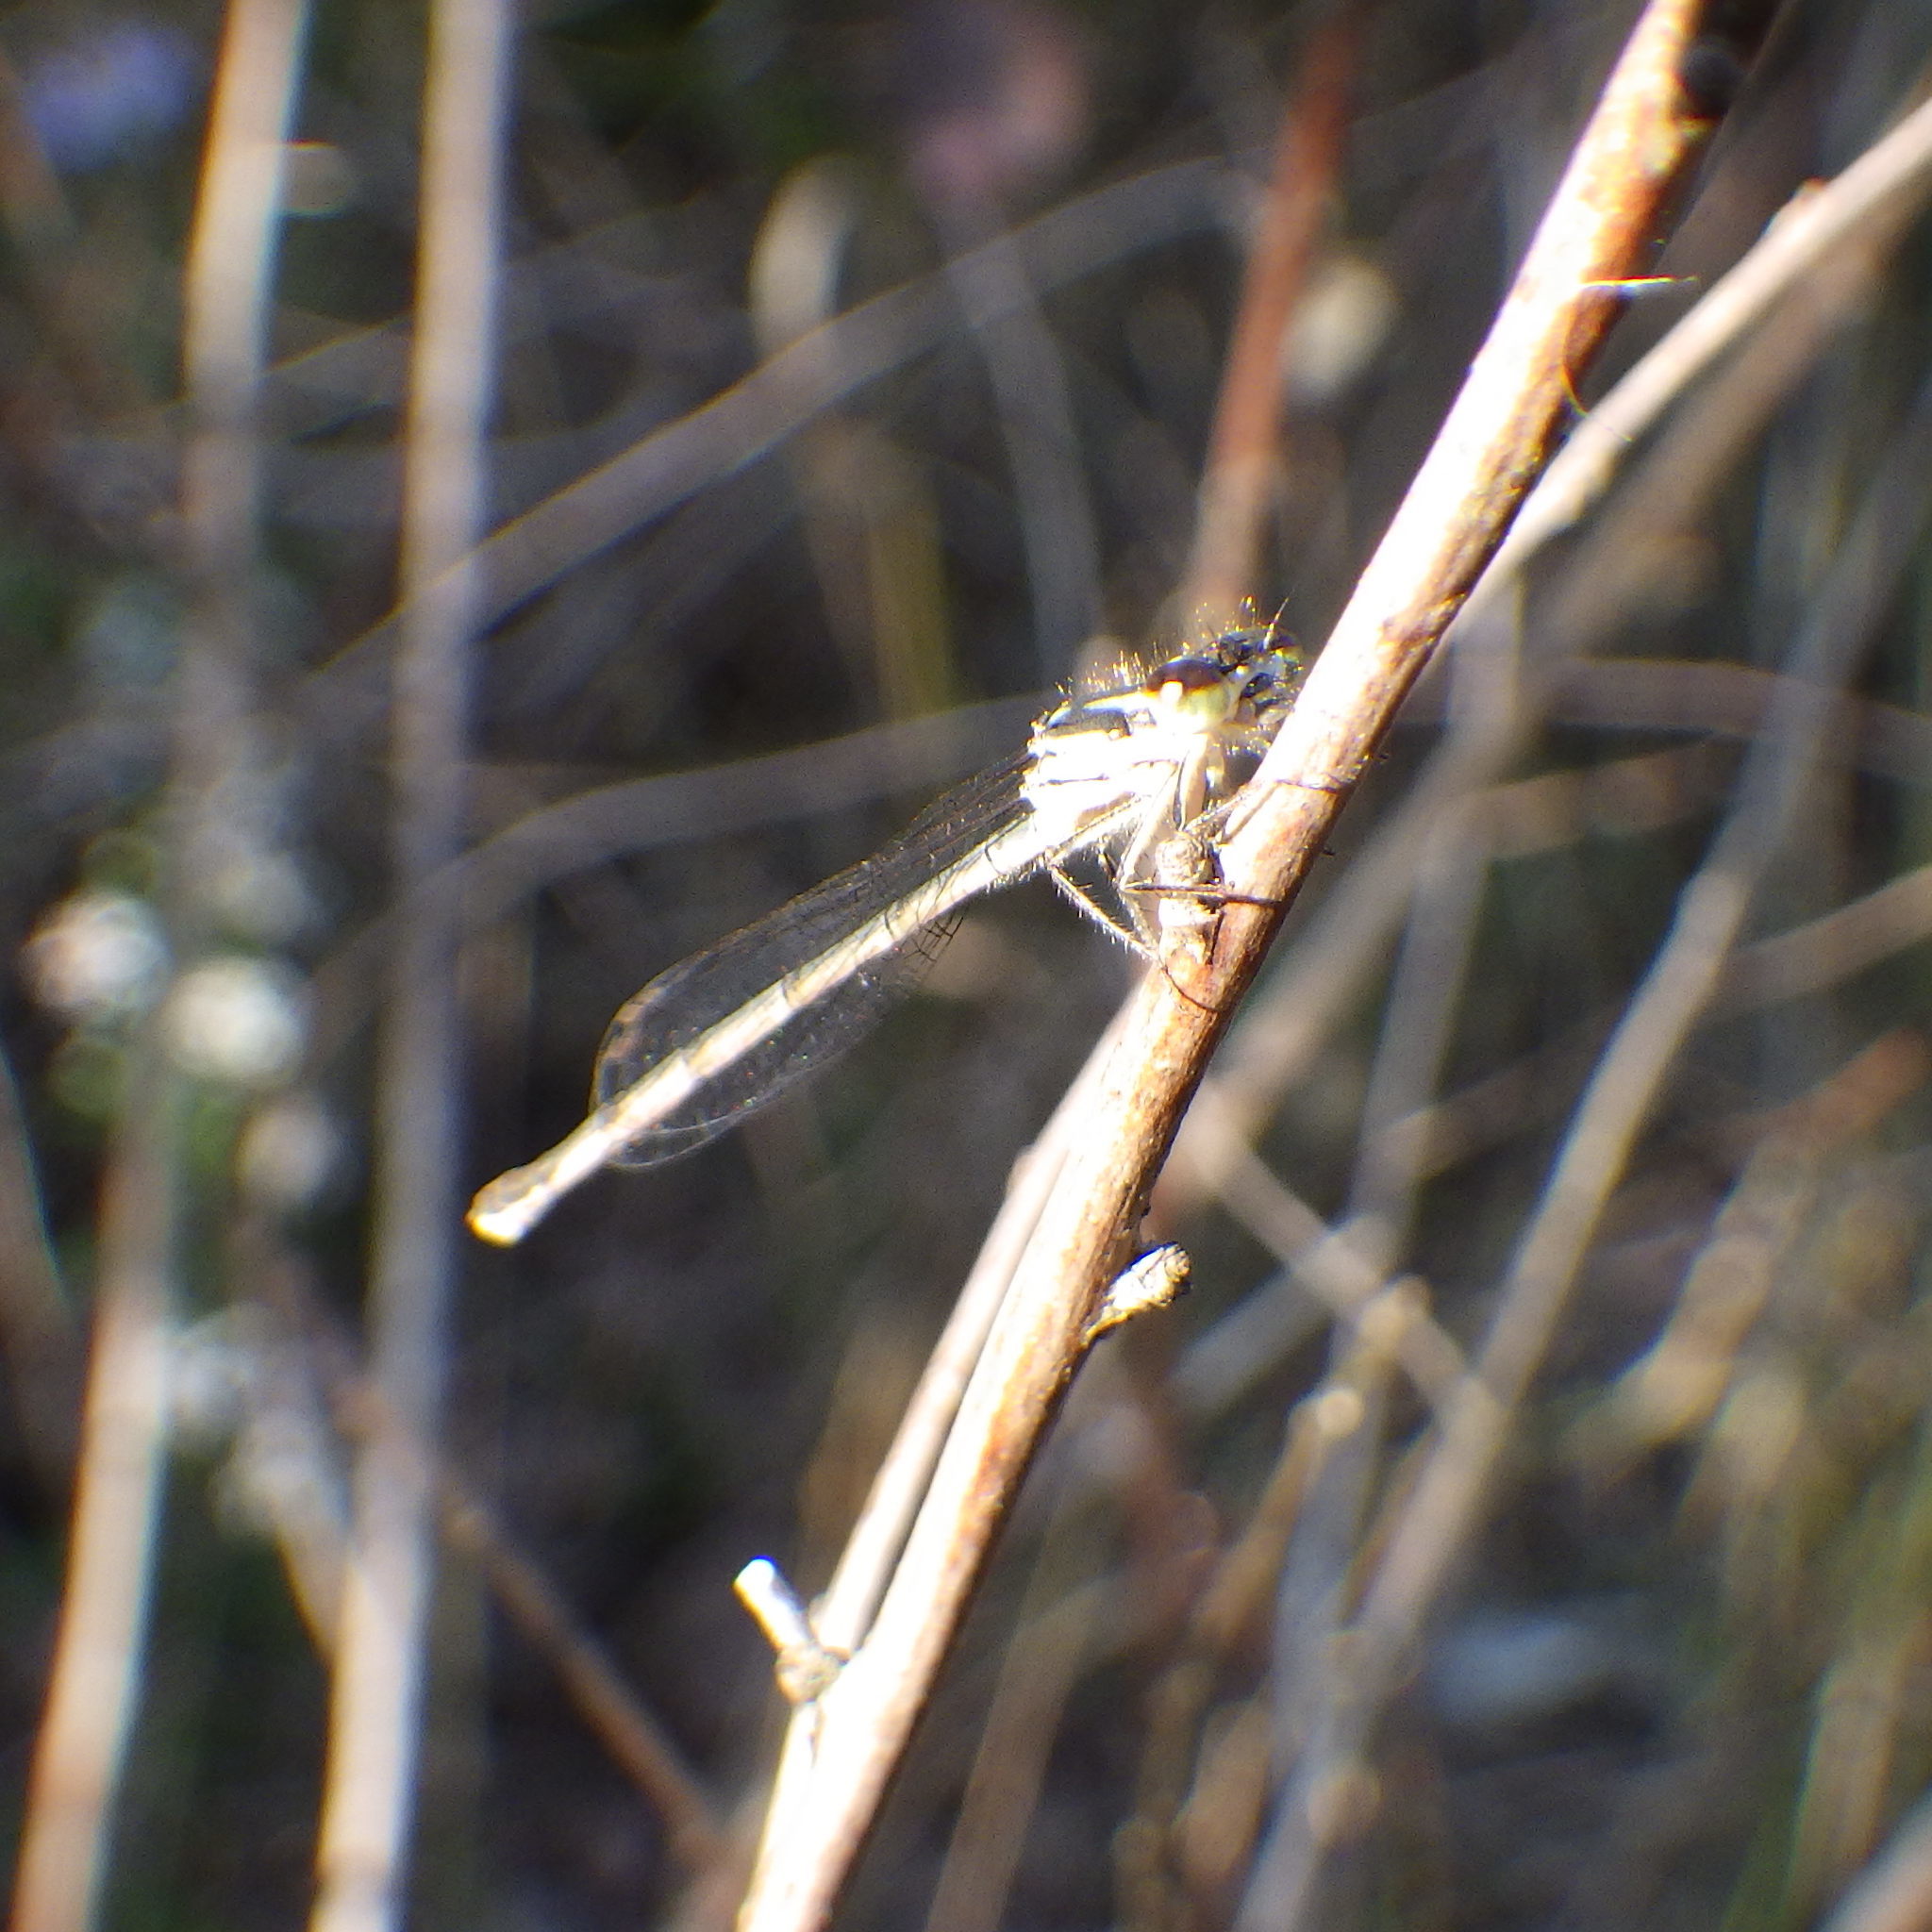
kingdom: Animalia
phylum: Arthropoda
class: Insecta
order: Odonata
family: Coenagrionidae
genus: Ischnura
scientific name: Ischnura posita
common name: Fragile forktail
